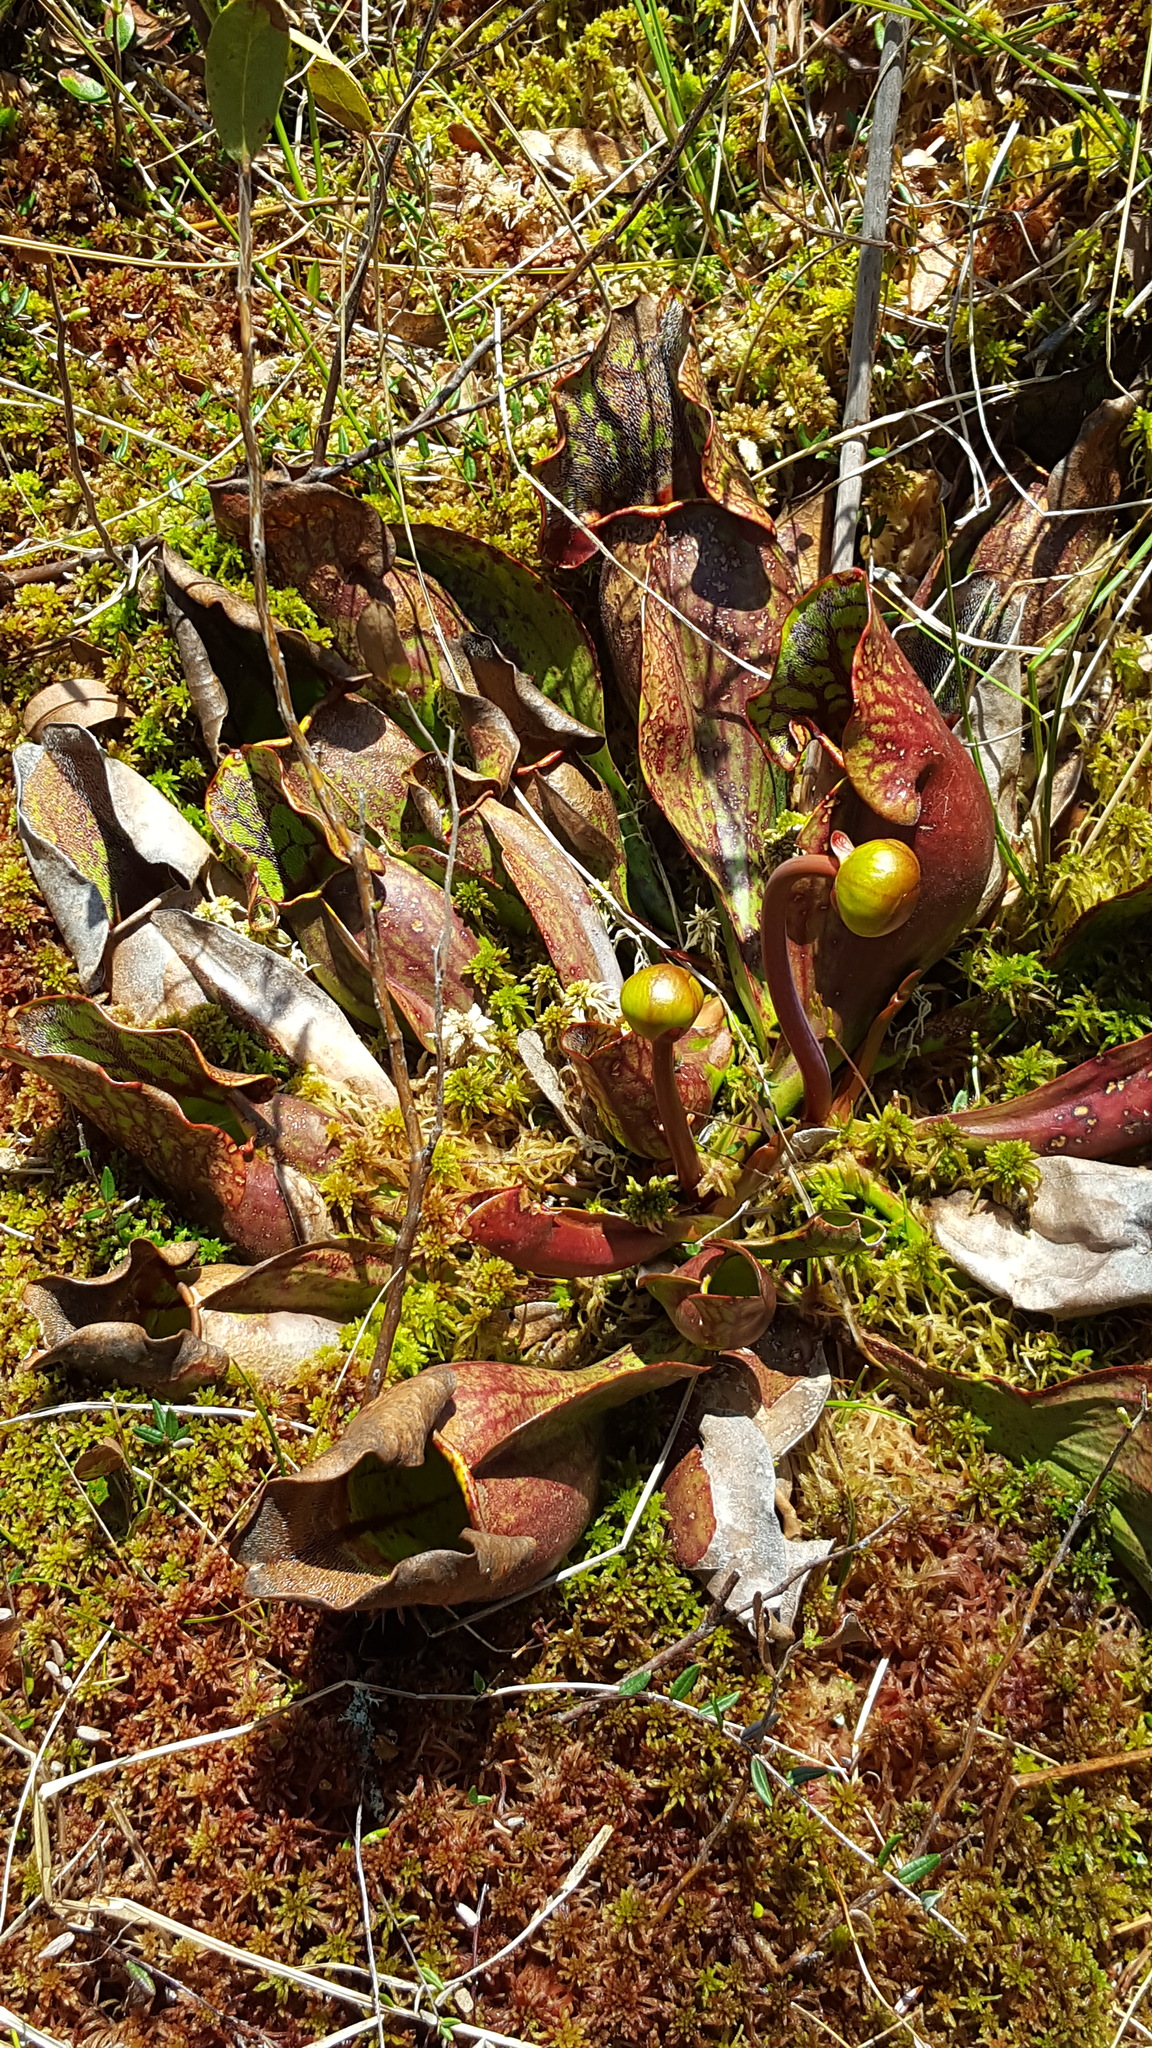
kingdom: Plantae
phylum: Tracheophyta
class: Magnoliopsida
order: Ericales
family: Sarraceniaceae
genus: Sarracenia
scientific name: Sarracenia purpurea
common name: Pitcherplant
